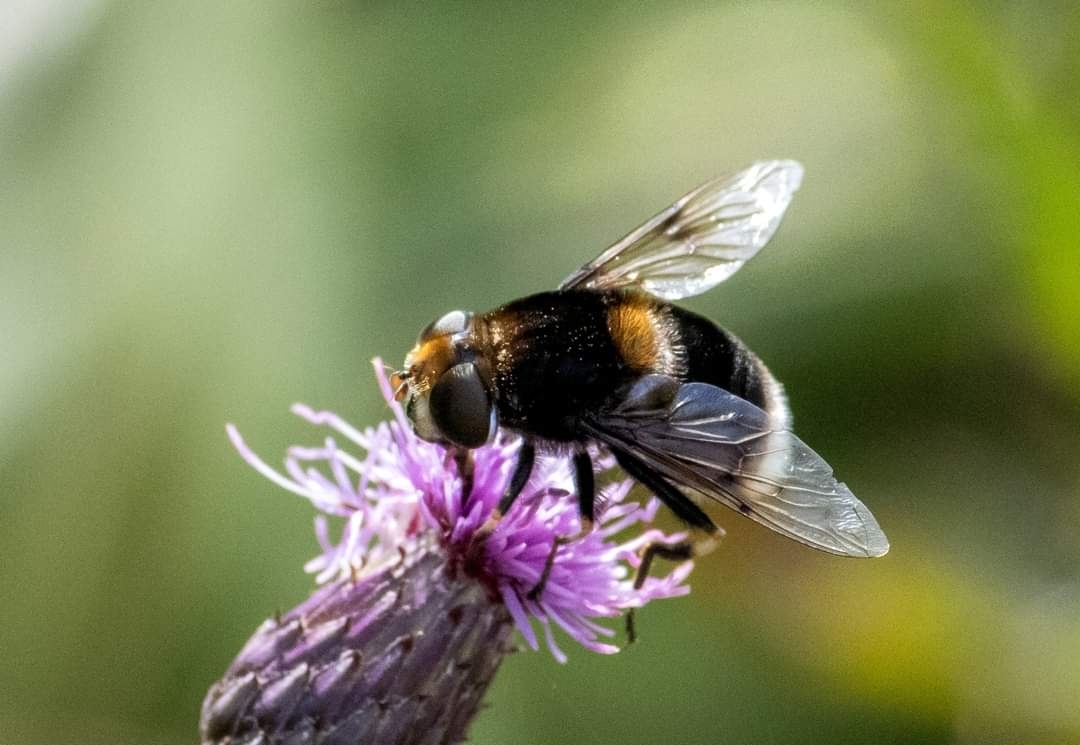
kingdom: Animalia
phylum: Arthropoda
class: Insecta
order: Diptera
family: Syrphidae
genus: Eristalis
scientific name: Eristalis intricaria
